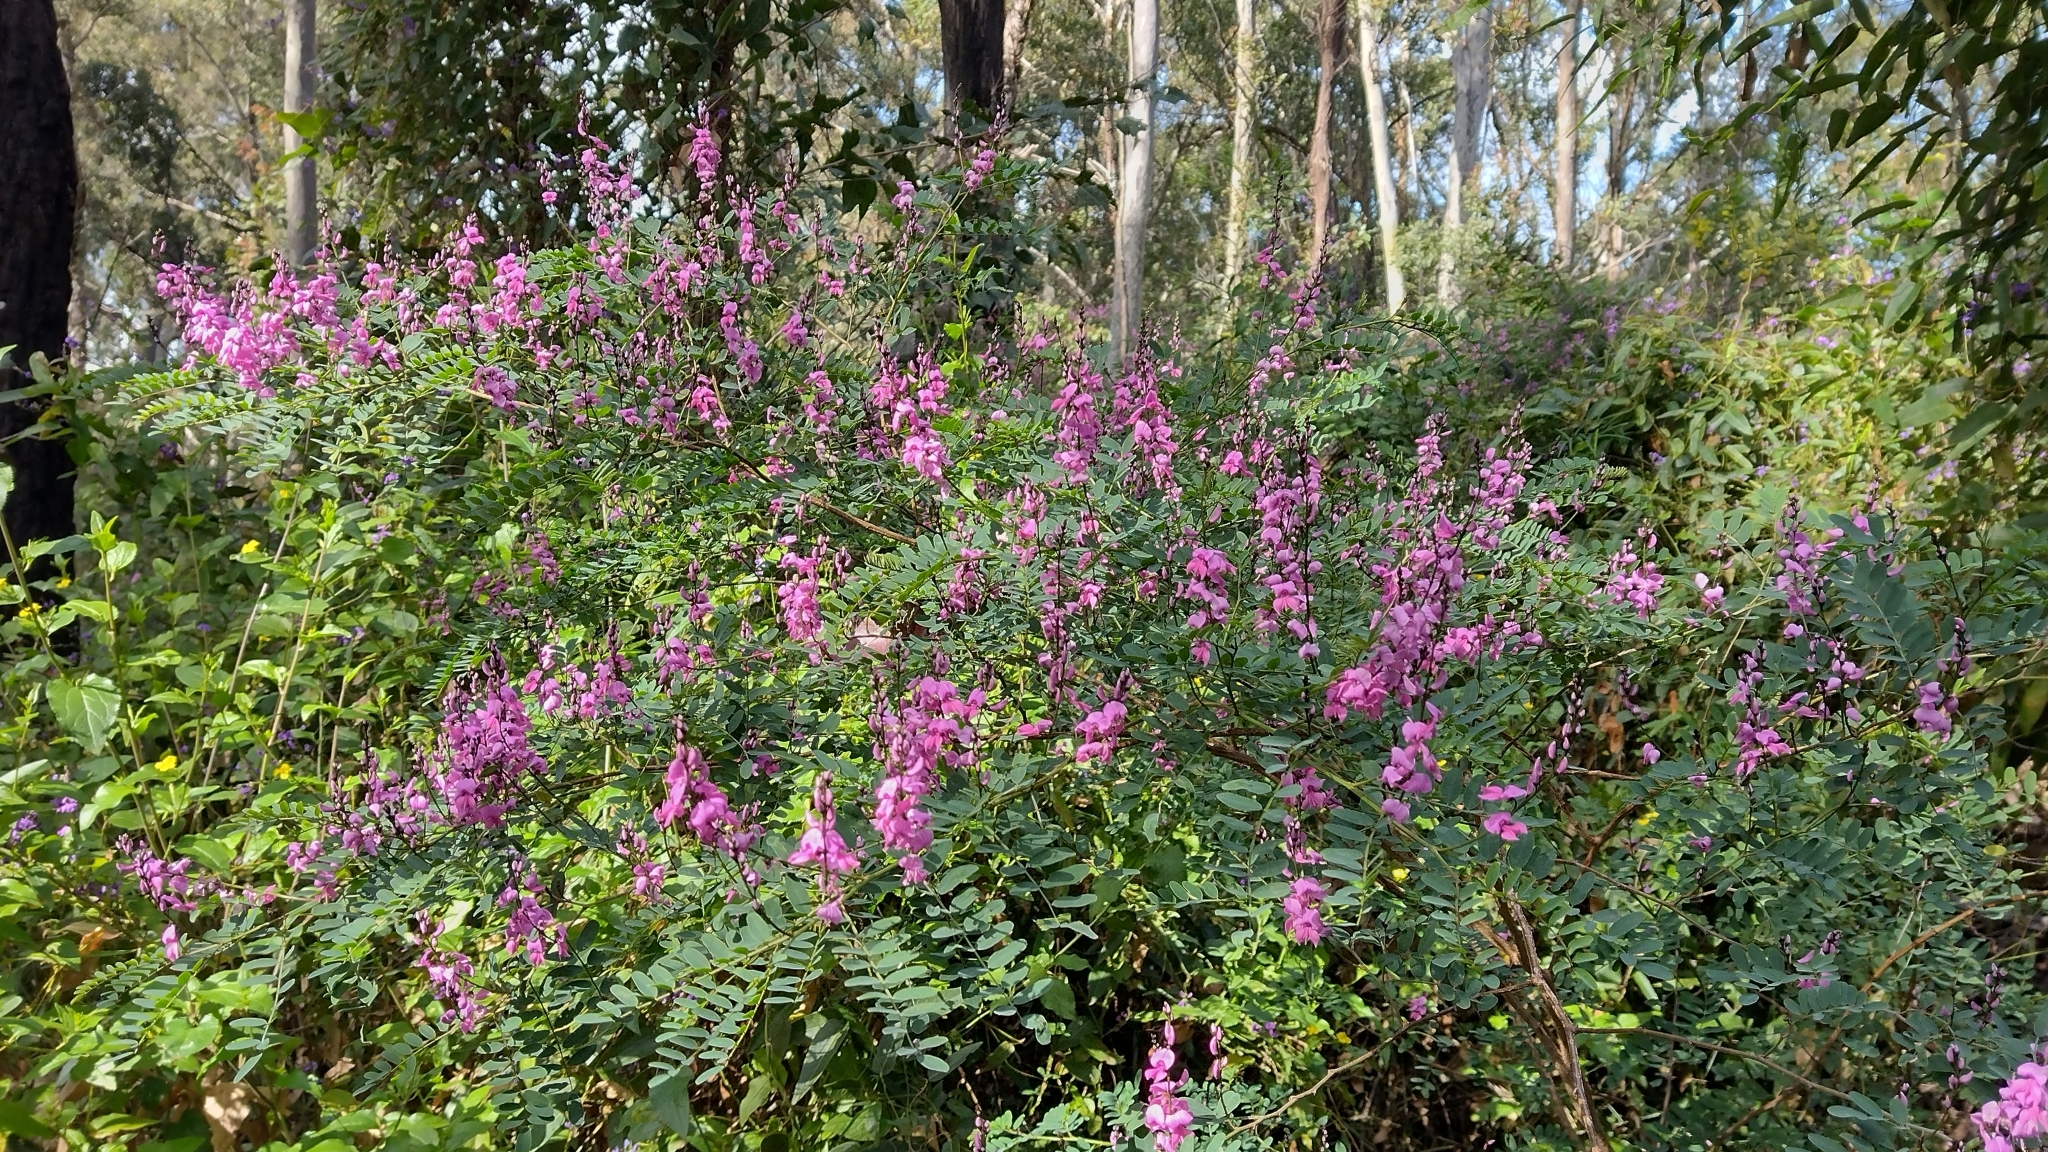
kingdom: Plantae
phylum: Tracheophyta
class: Magnoliopsida
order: Fabales
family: Fabaceae
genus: Indigofera
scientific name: Indigofera australis
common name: Australian indigo
